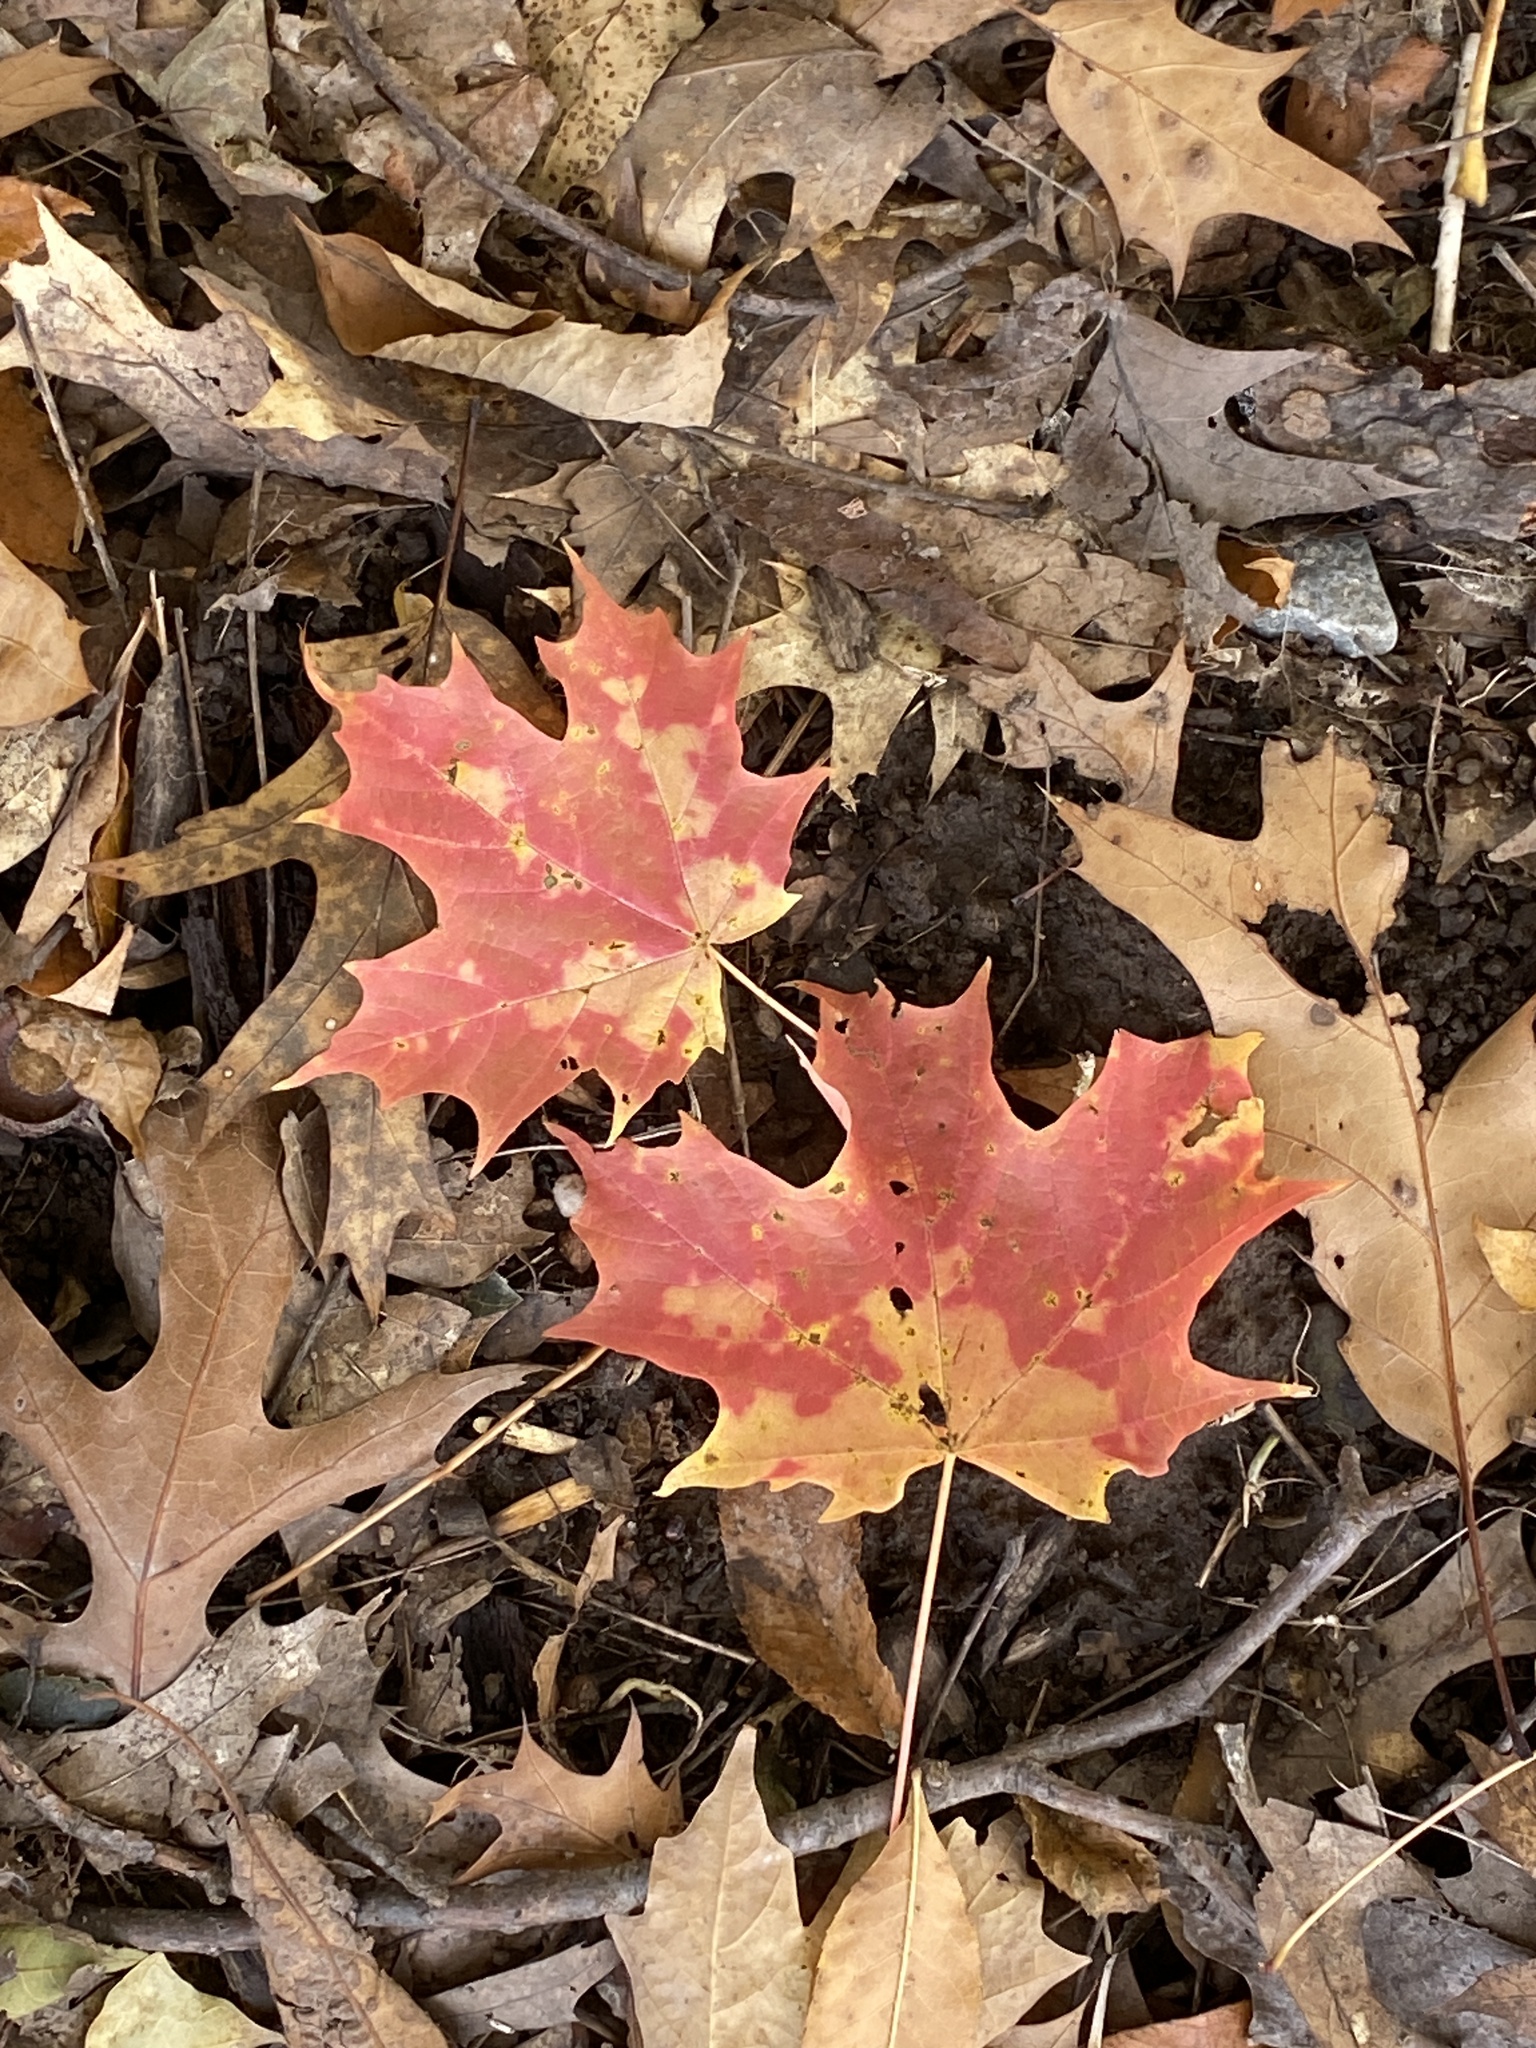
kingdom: Plantae
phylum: Tracheophyta
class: Magnoliopsida
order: Sapindales
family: Sapindaceae
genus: Acer
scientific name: Acer saccharum
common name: Sugar maple
